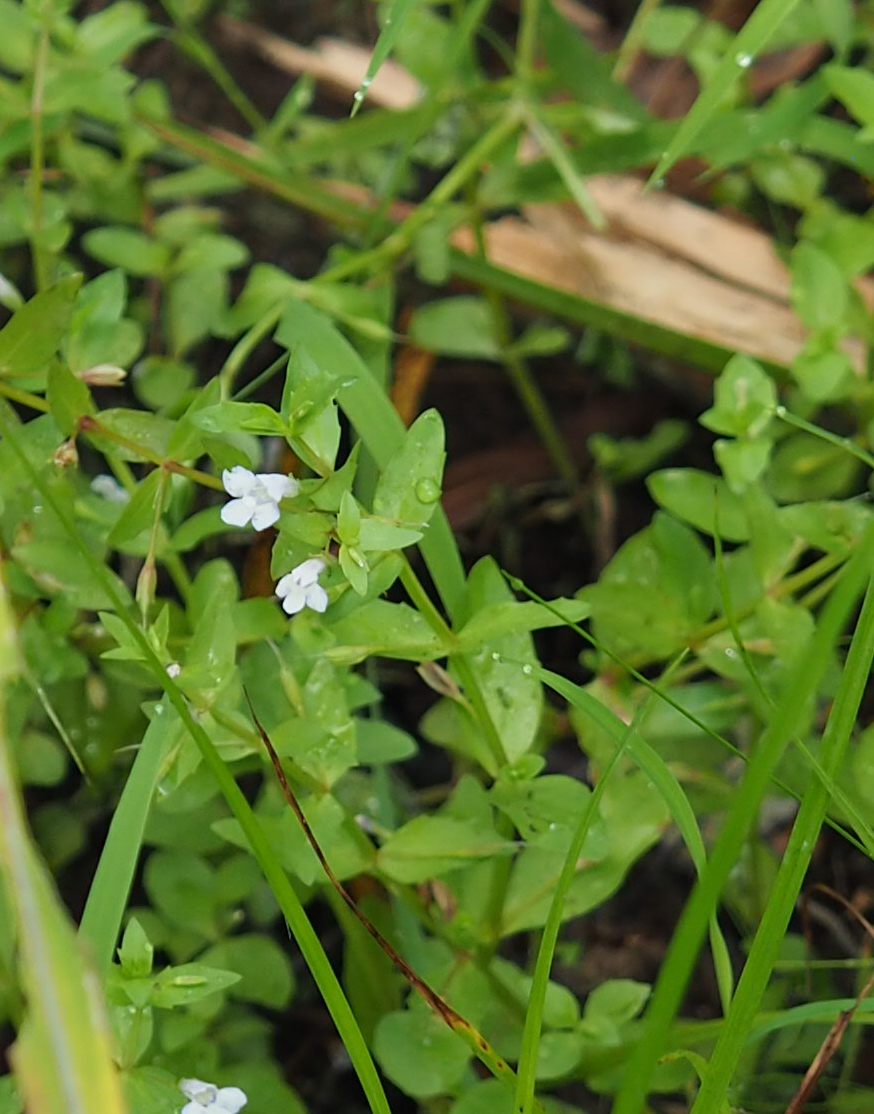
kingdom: Plantae
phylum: Tracheophyta
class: Magnoliopsida
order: Lamiales
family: Linderniaceae
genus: Lindernia
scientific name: Lindernia dubia
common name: Annual false pimpernel
